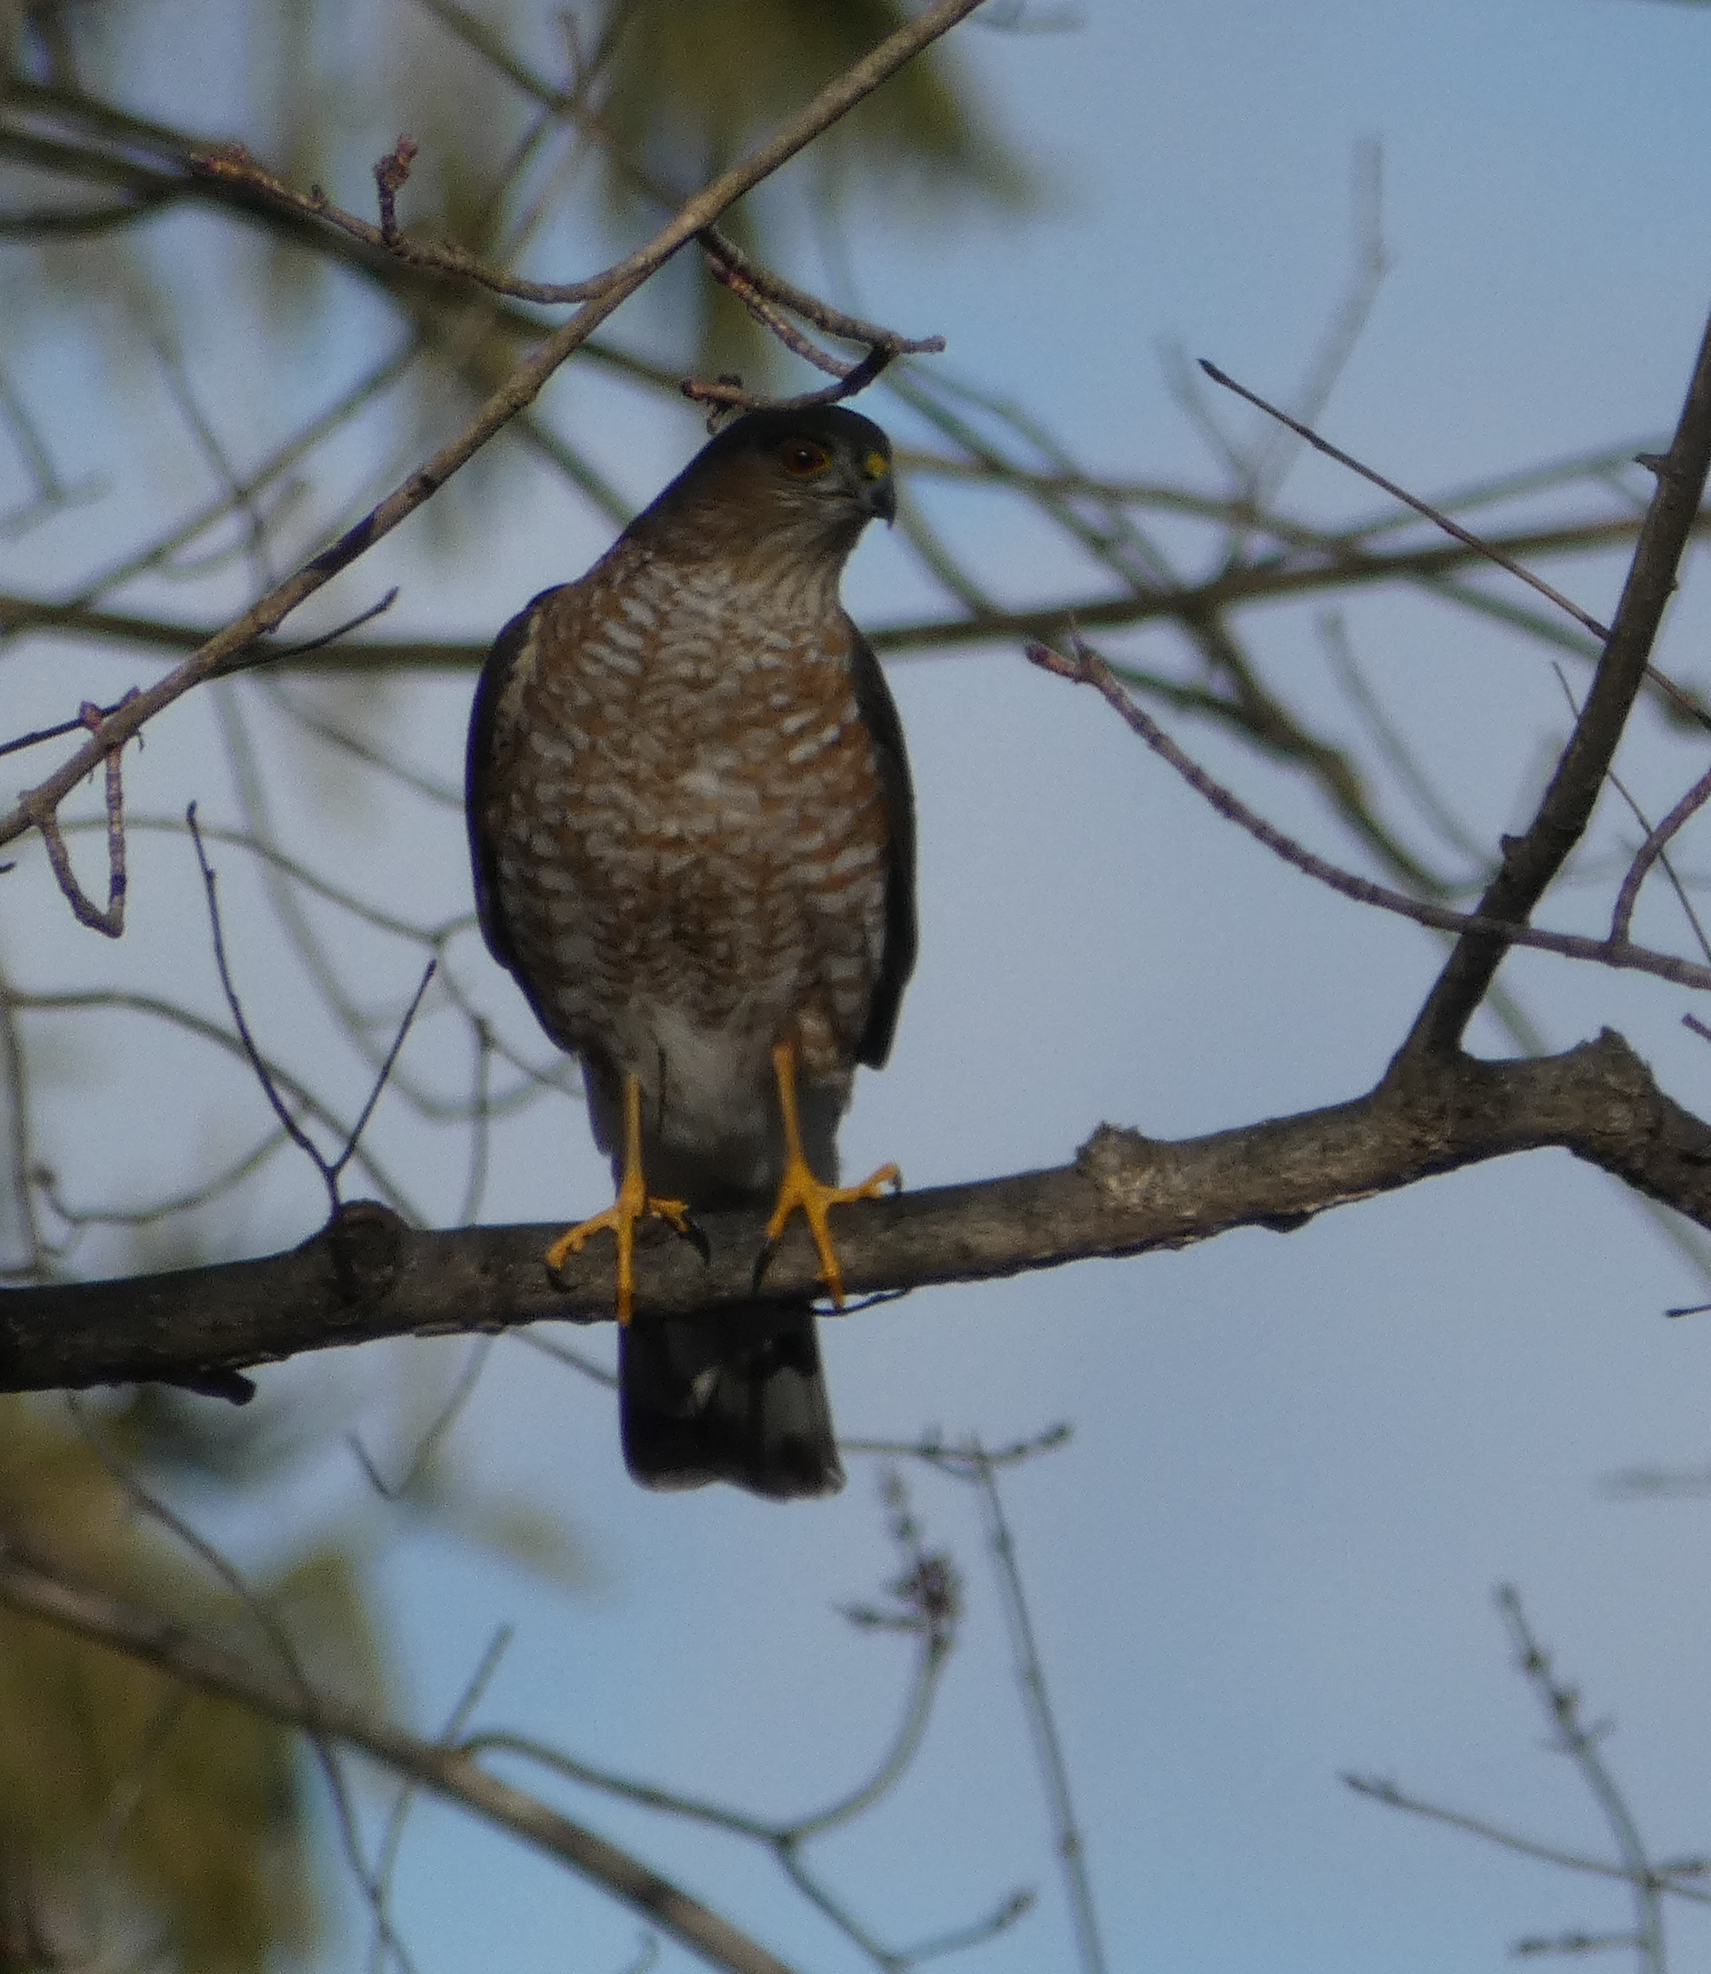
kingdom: Animalia
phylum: Chordata
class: Aves
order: Accipitriformes
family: Accipitridae
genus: Accipiter
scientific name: Accipiter striatus
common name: Sharp-shinned hawk
